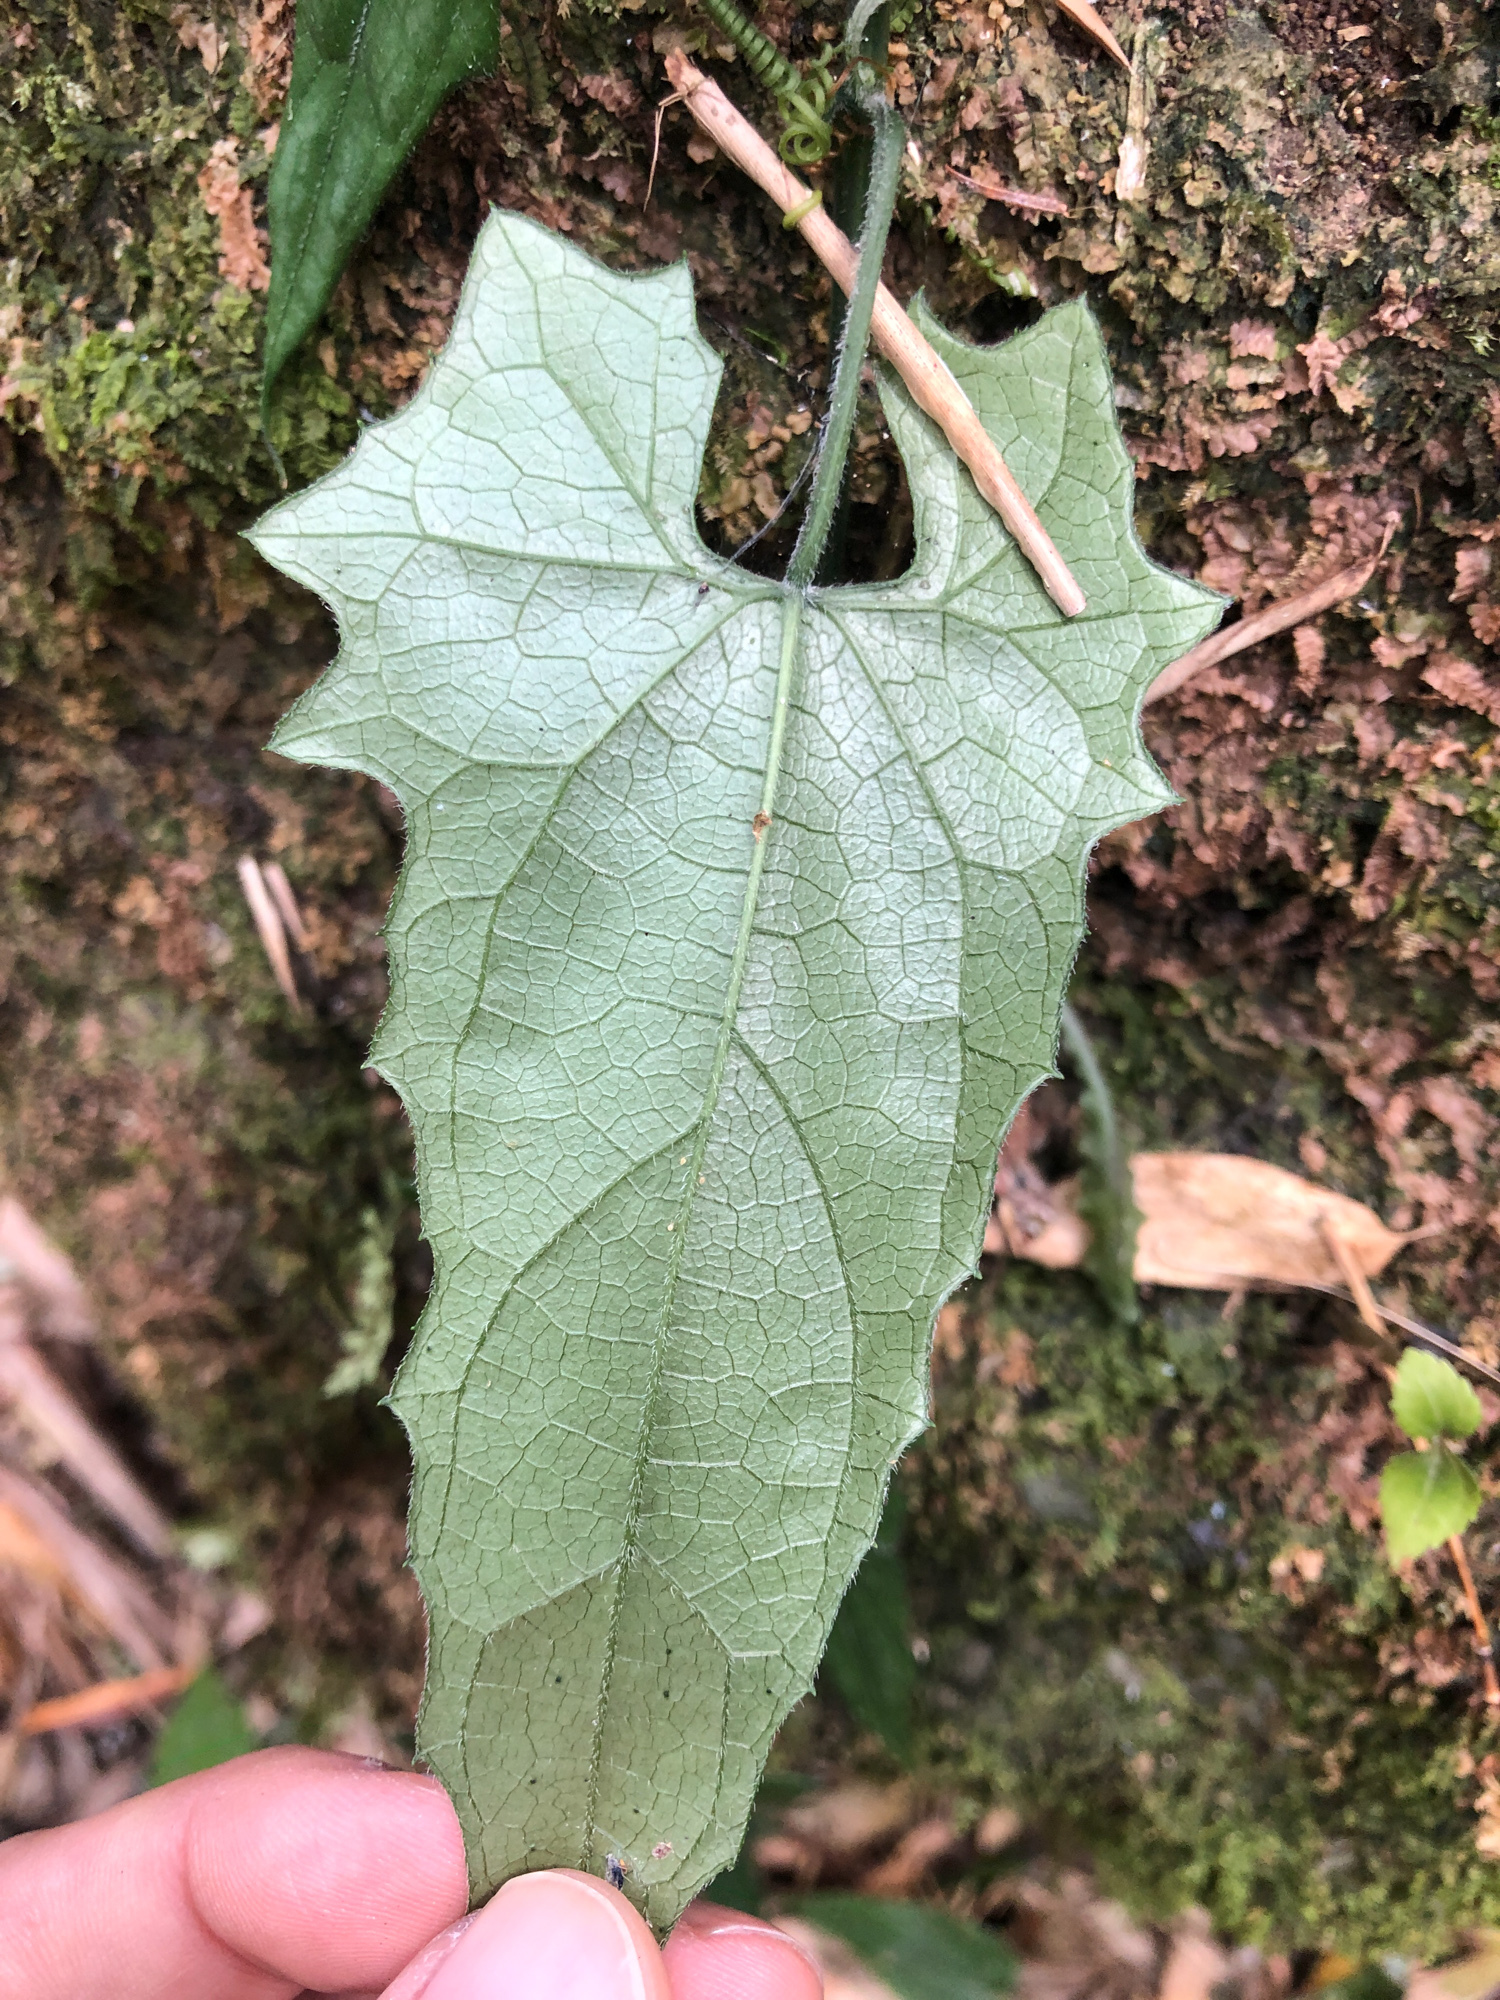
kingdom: Plantae
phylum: Tracheophyta
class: Magnoliopsida
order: Cucurbitales
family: Cucurbitaceae
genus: Trichosanthes
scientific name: Trichosanthes homophylla
